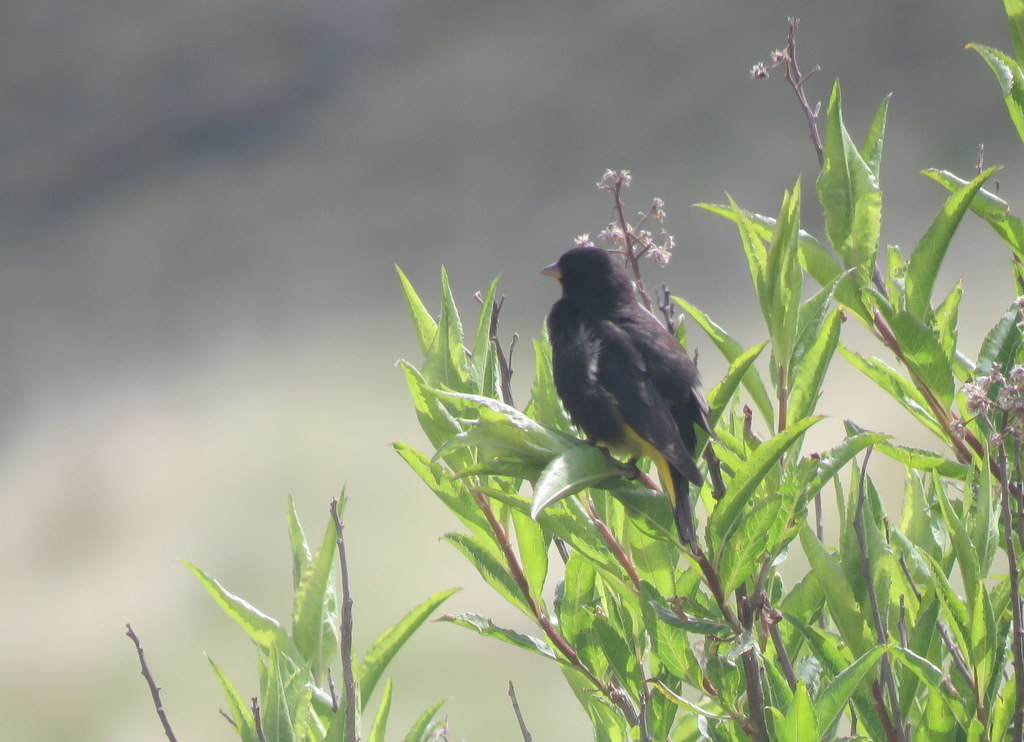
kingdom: Animalia
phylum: Chordata
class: Aves
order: Passeriformes
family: Fringillidae
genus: Spinus
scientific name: Spinus atratus
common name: Black siskin
